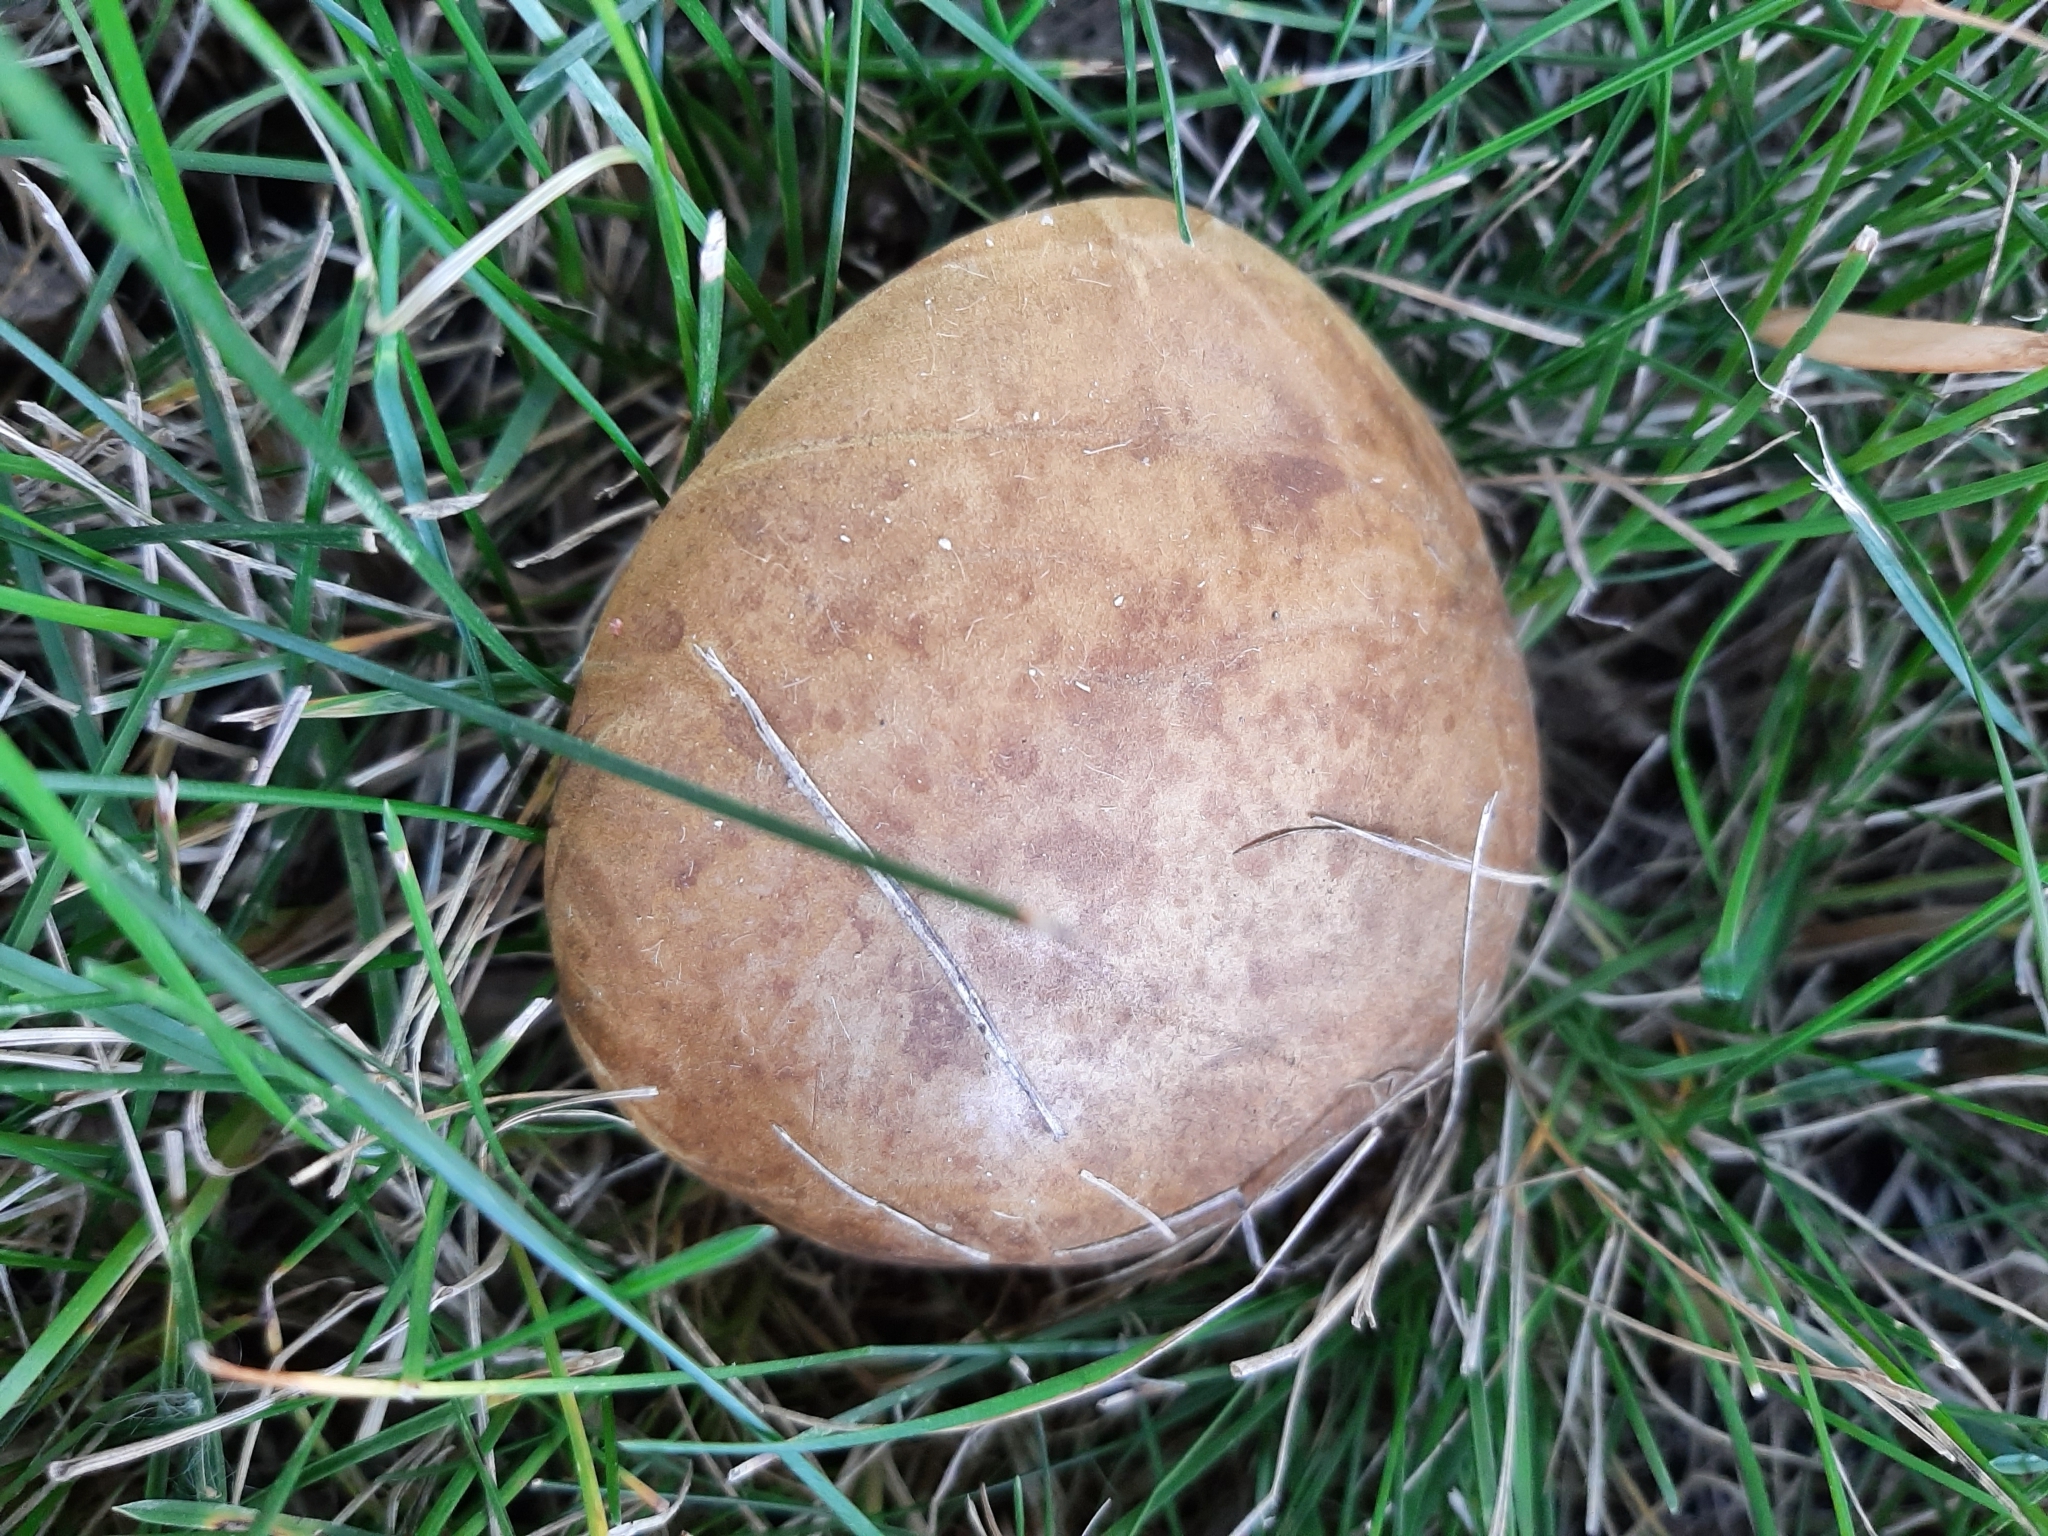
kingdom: Fungi
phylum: Basidiomycota
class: Agaricomycetes
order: Boletales
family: Boletinellaceae
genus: Boletinellus
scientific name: Boletinellus merulioides
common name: Ash tree bolete
